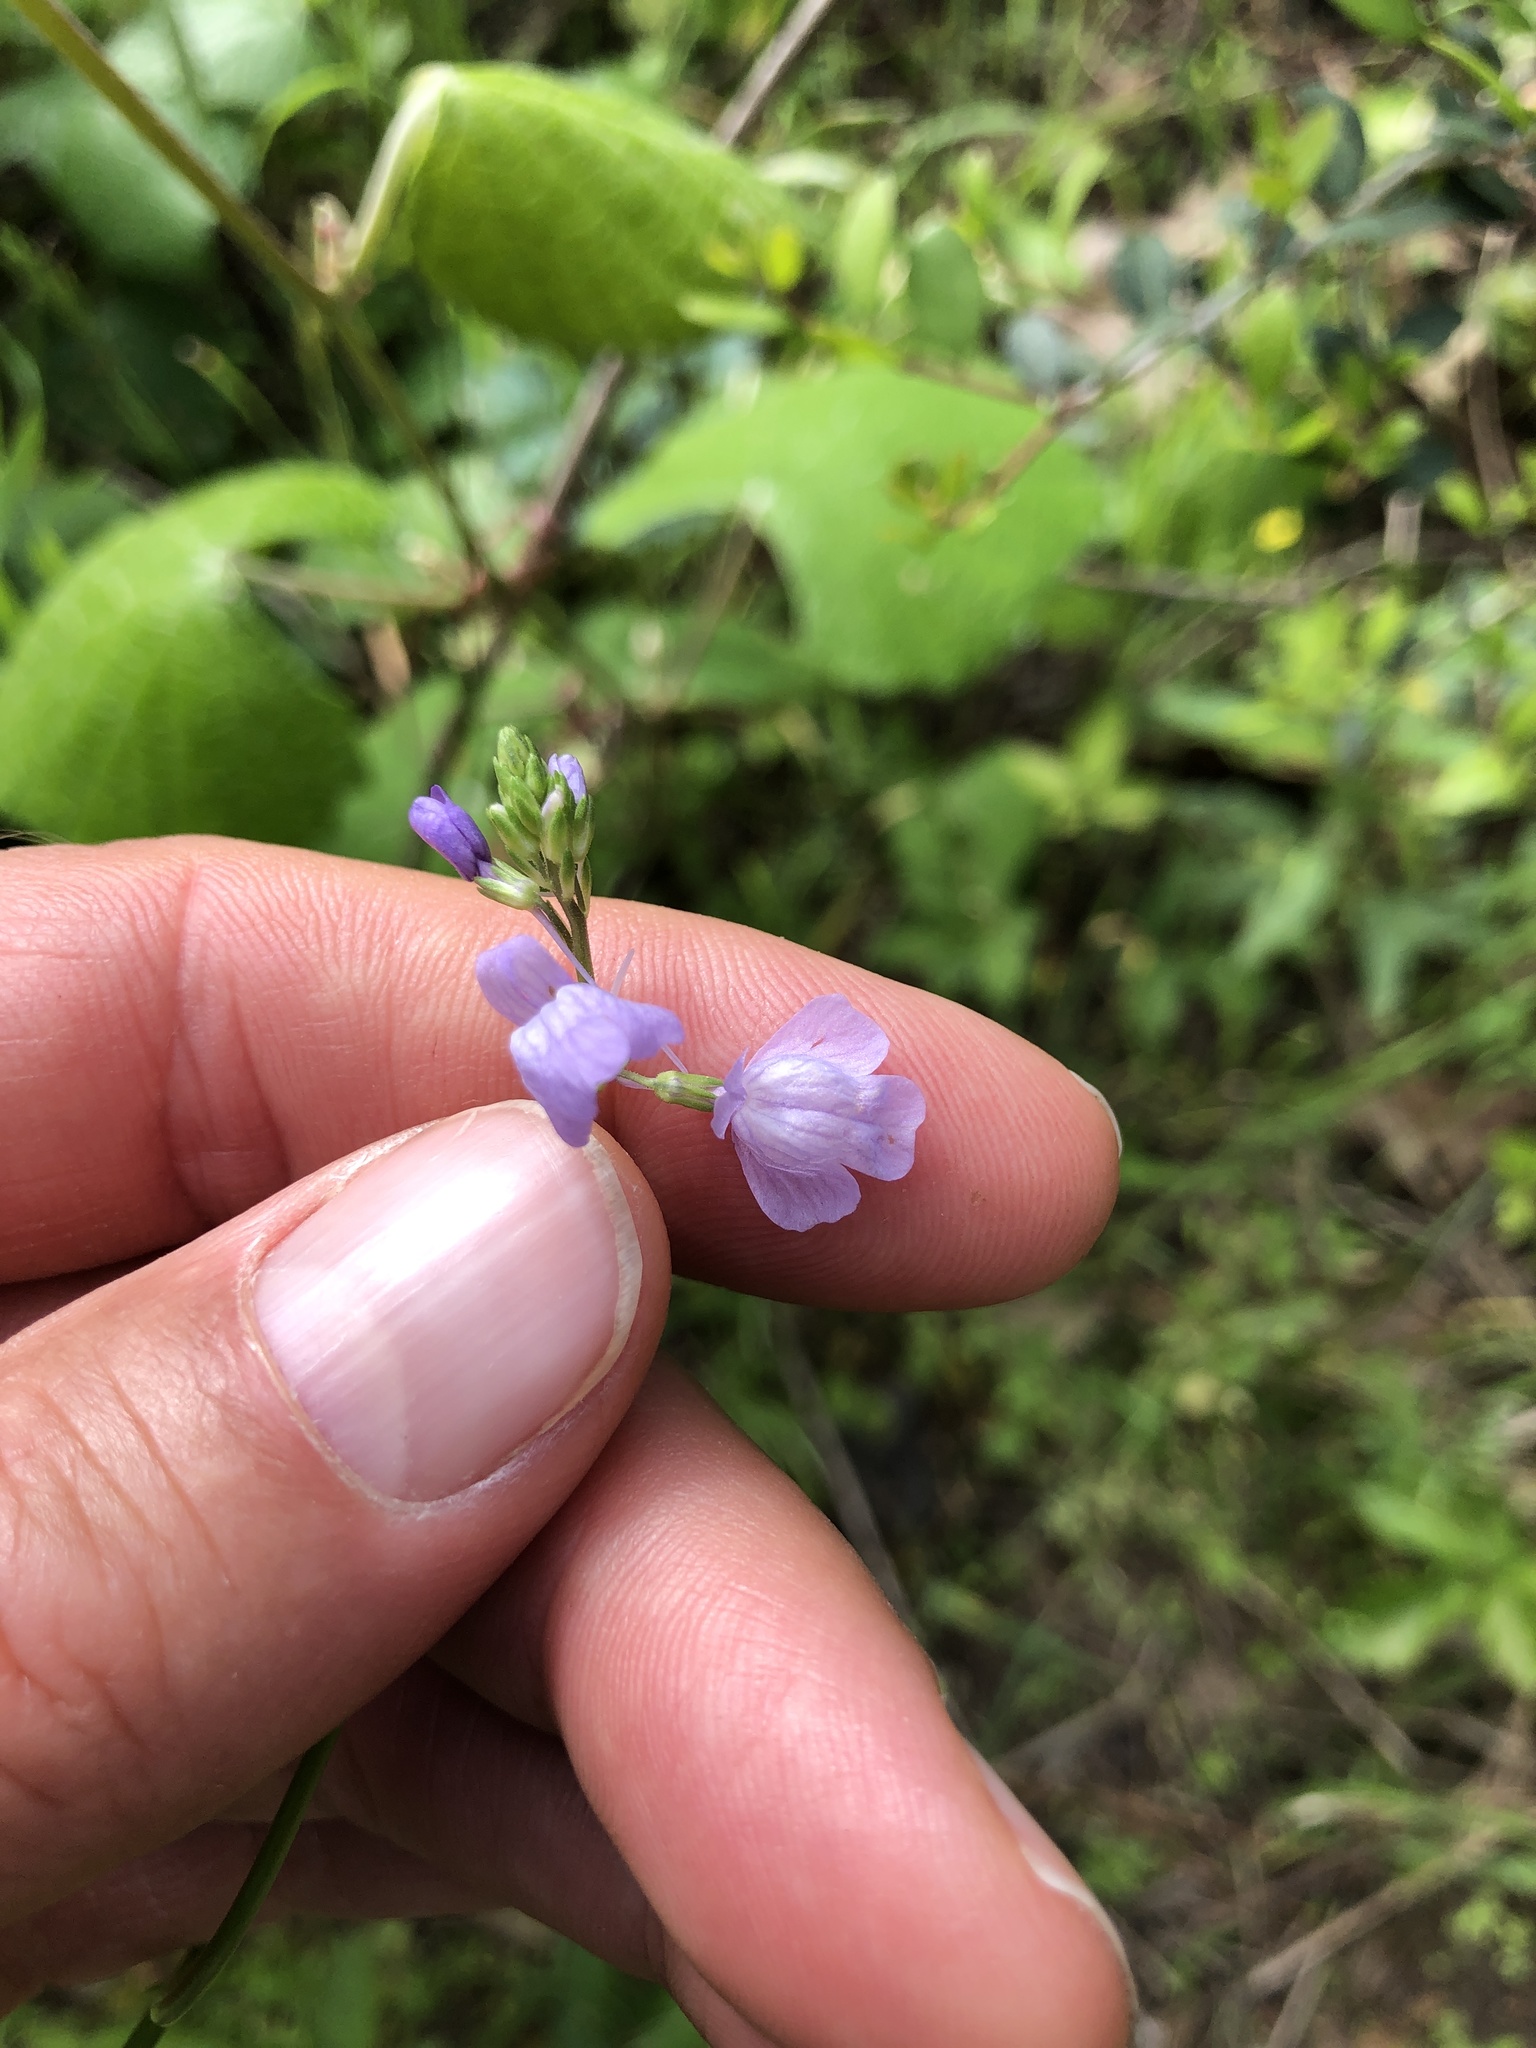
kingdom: Plantae
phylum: Tracheophyta
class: Magnoliopsida
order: Lamiales
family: Plantaginaceae
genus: Nuttallanthus
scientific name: Nuttallanthus texanus
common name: Texas toadflax
